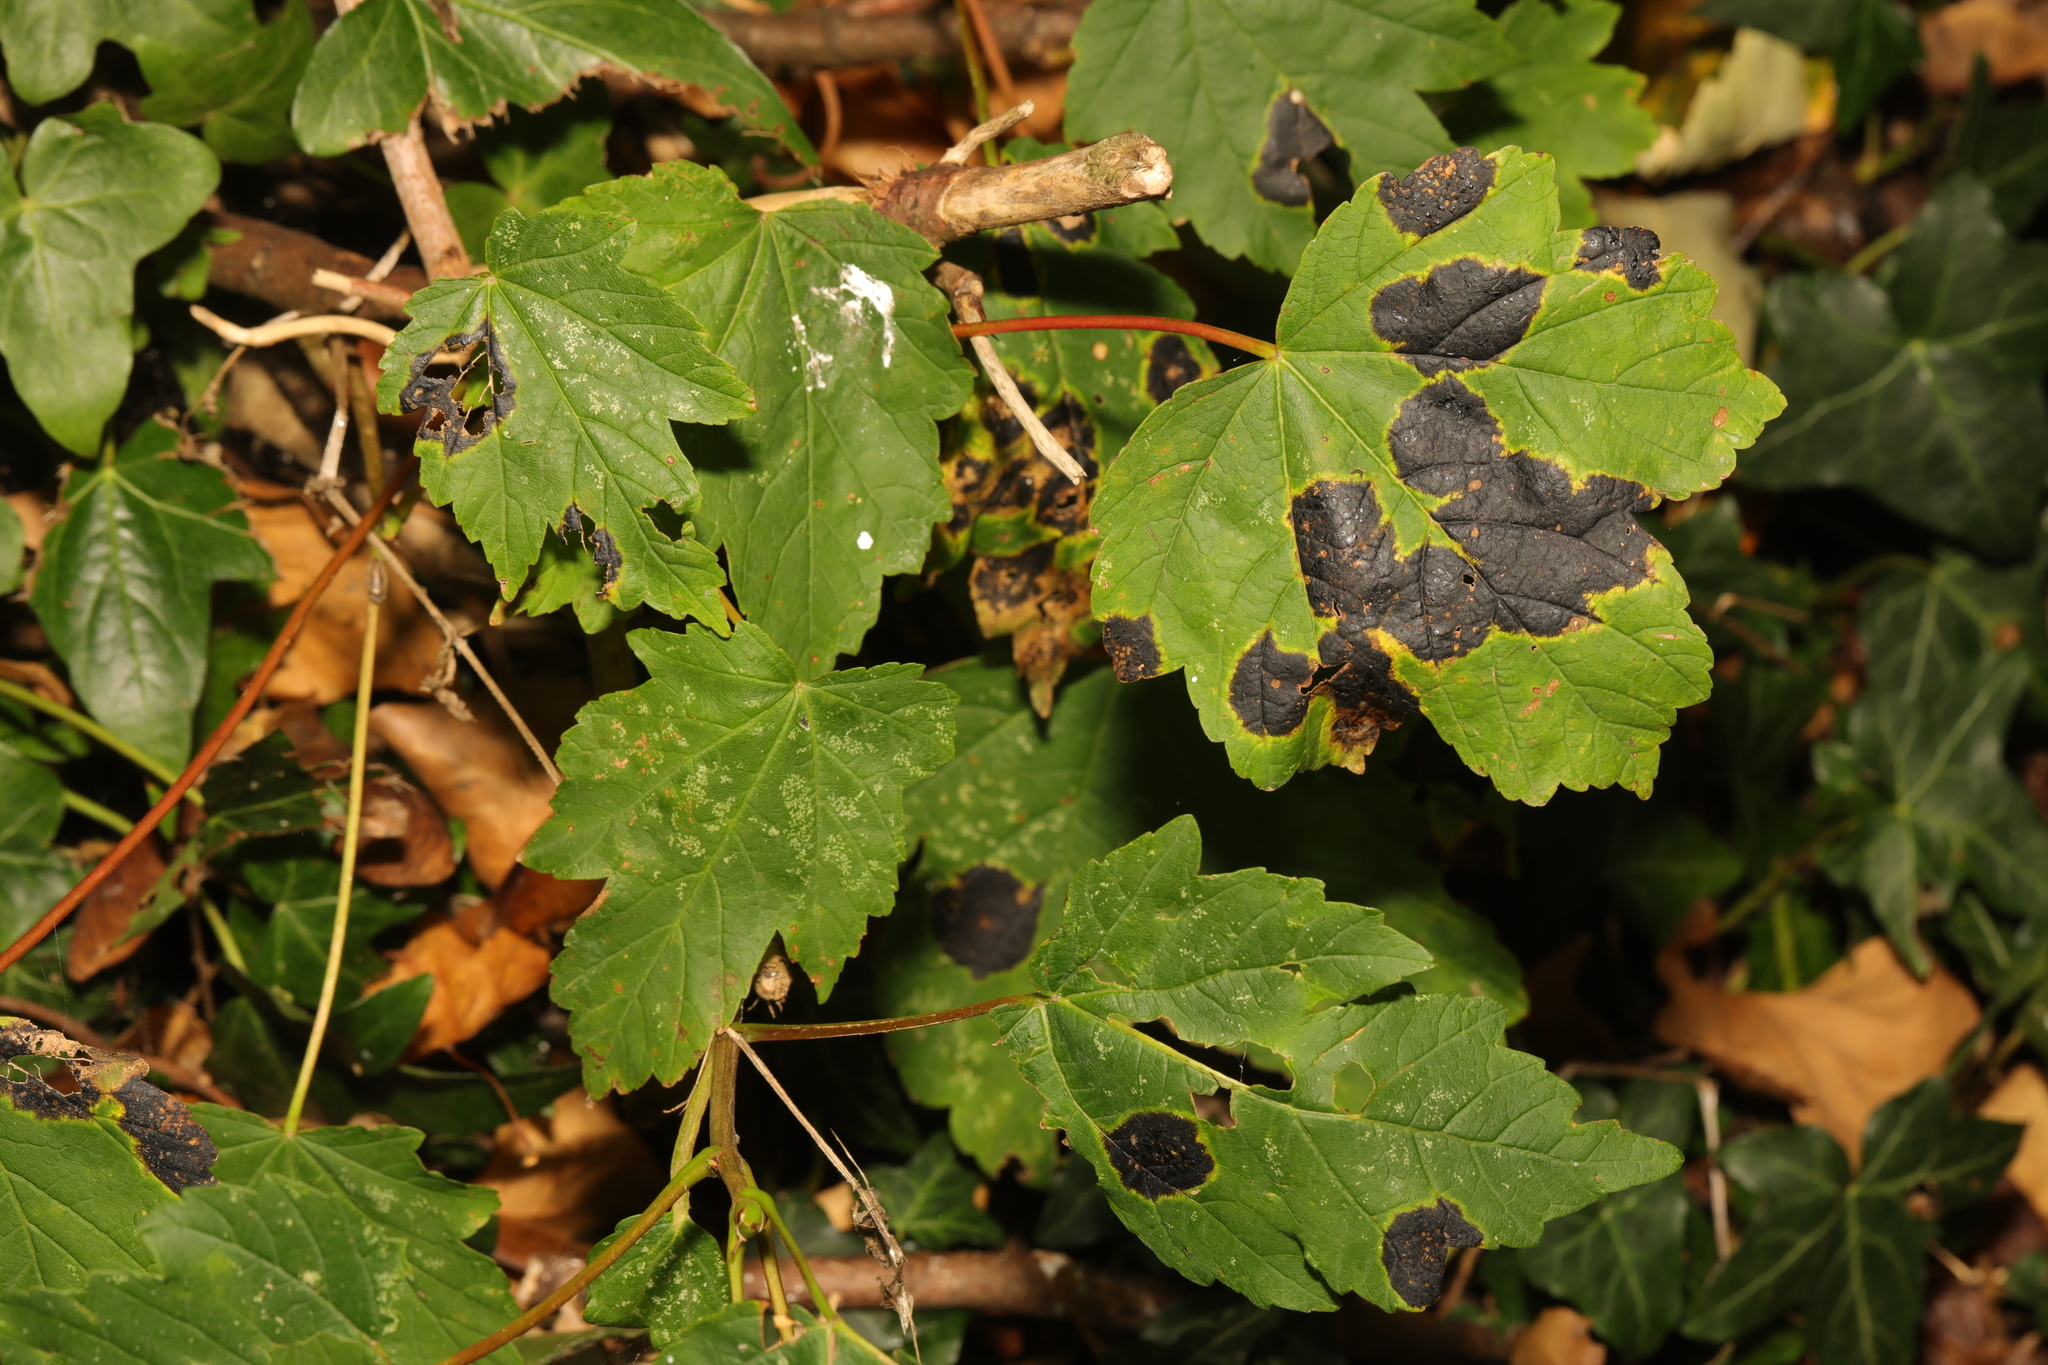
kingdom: Plantae
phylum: Tracheophyta
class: Magnoliopsida
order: Sapindales
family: Sapindaceae
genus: Acer
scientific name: Acer pseudoplatanus
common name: Sycamore
